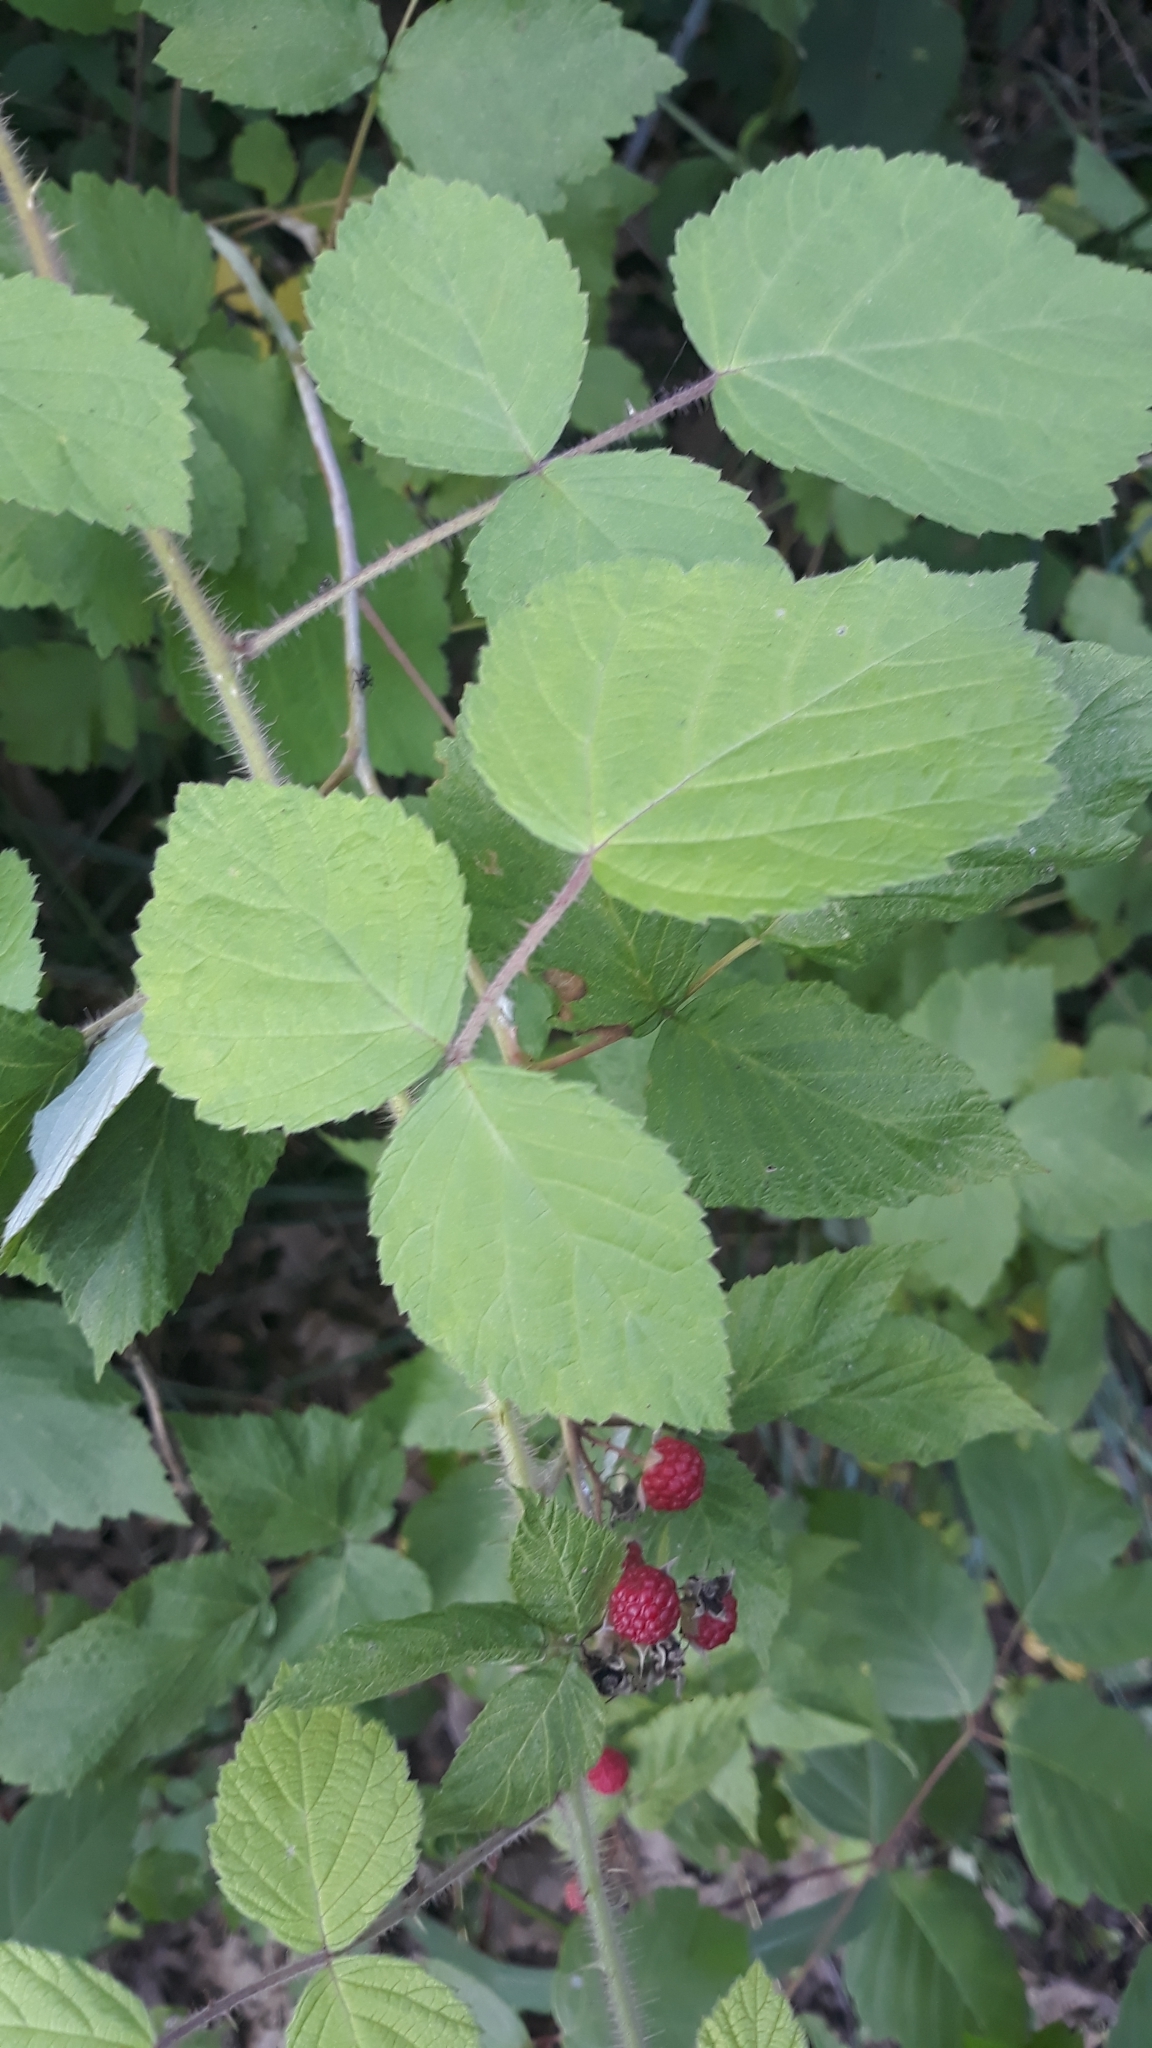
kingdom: Plantae
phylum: Tracheophyta
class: Magnoliopsida
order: Rosales
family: Rosaceae
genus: Rubus
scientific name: Rubus phoenicolasius
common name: Japanese wineberry
